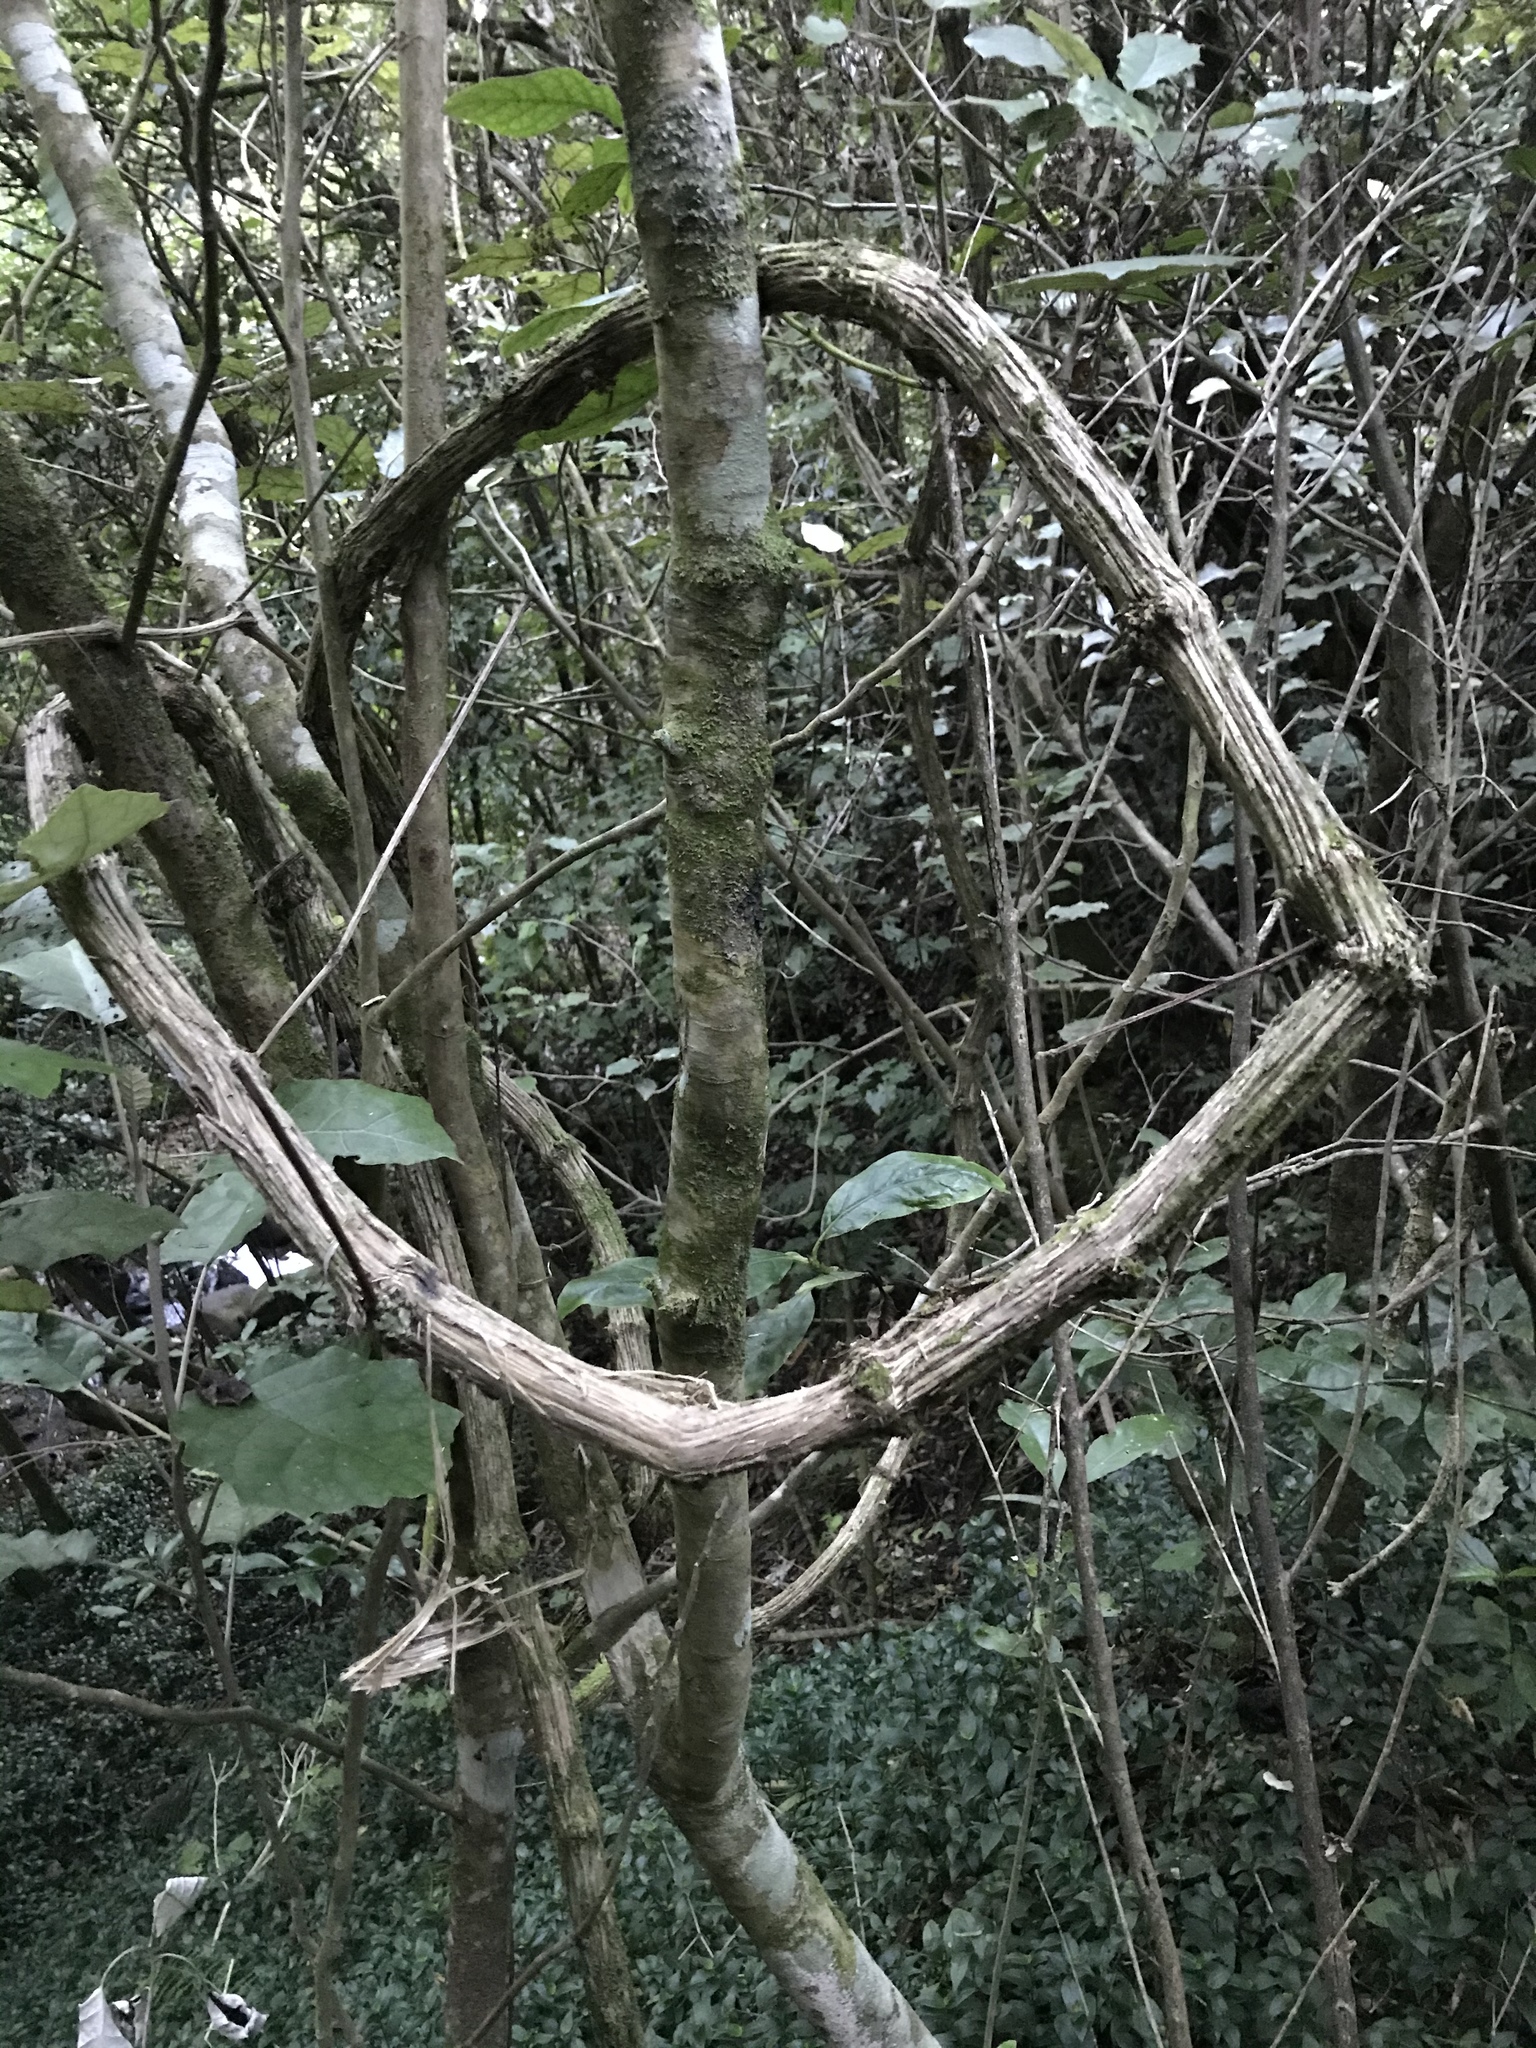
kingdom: Plantae
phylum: Tracheophyta
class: Magnoliopsida
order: Ranunculales
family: Ranunculaceae
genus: Clematis
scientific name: Clematis vitalba
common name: Evergreen clematis
